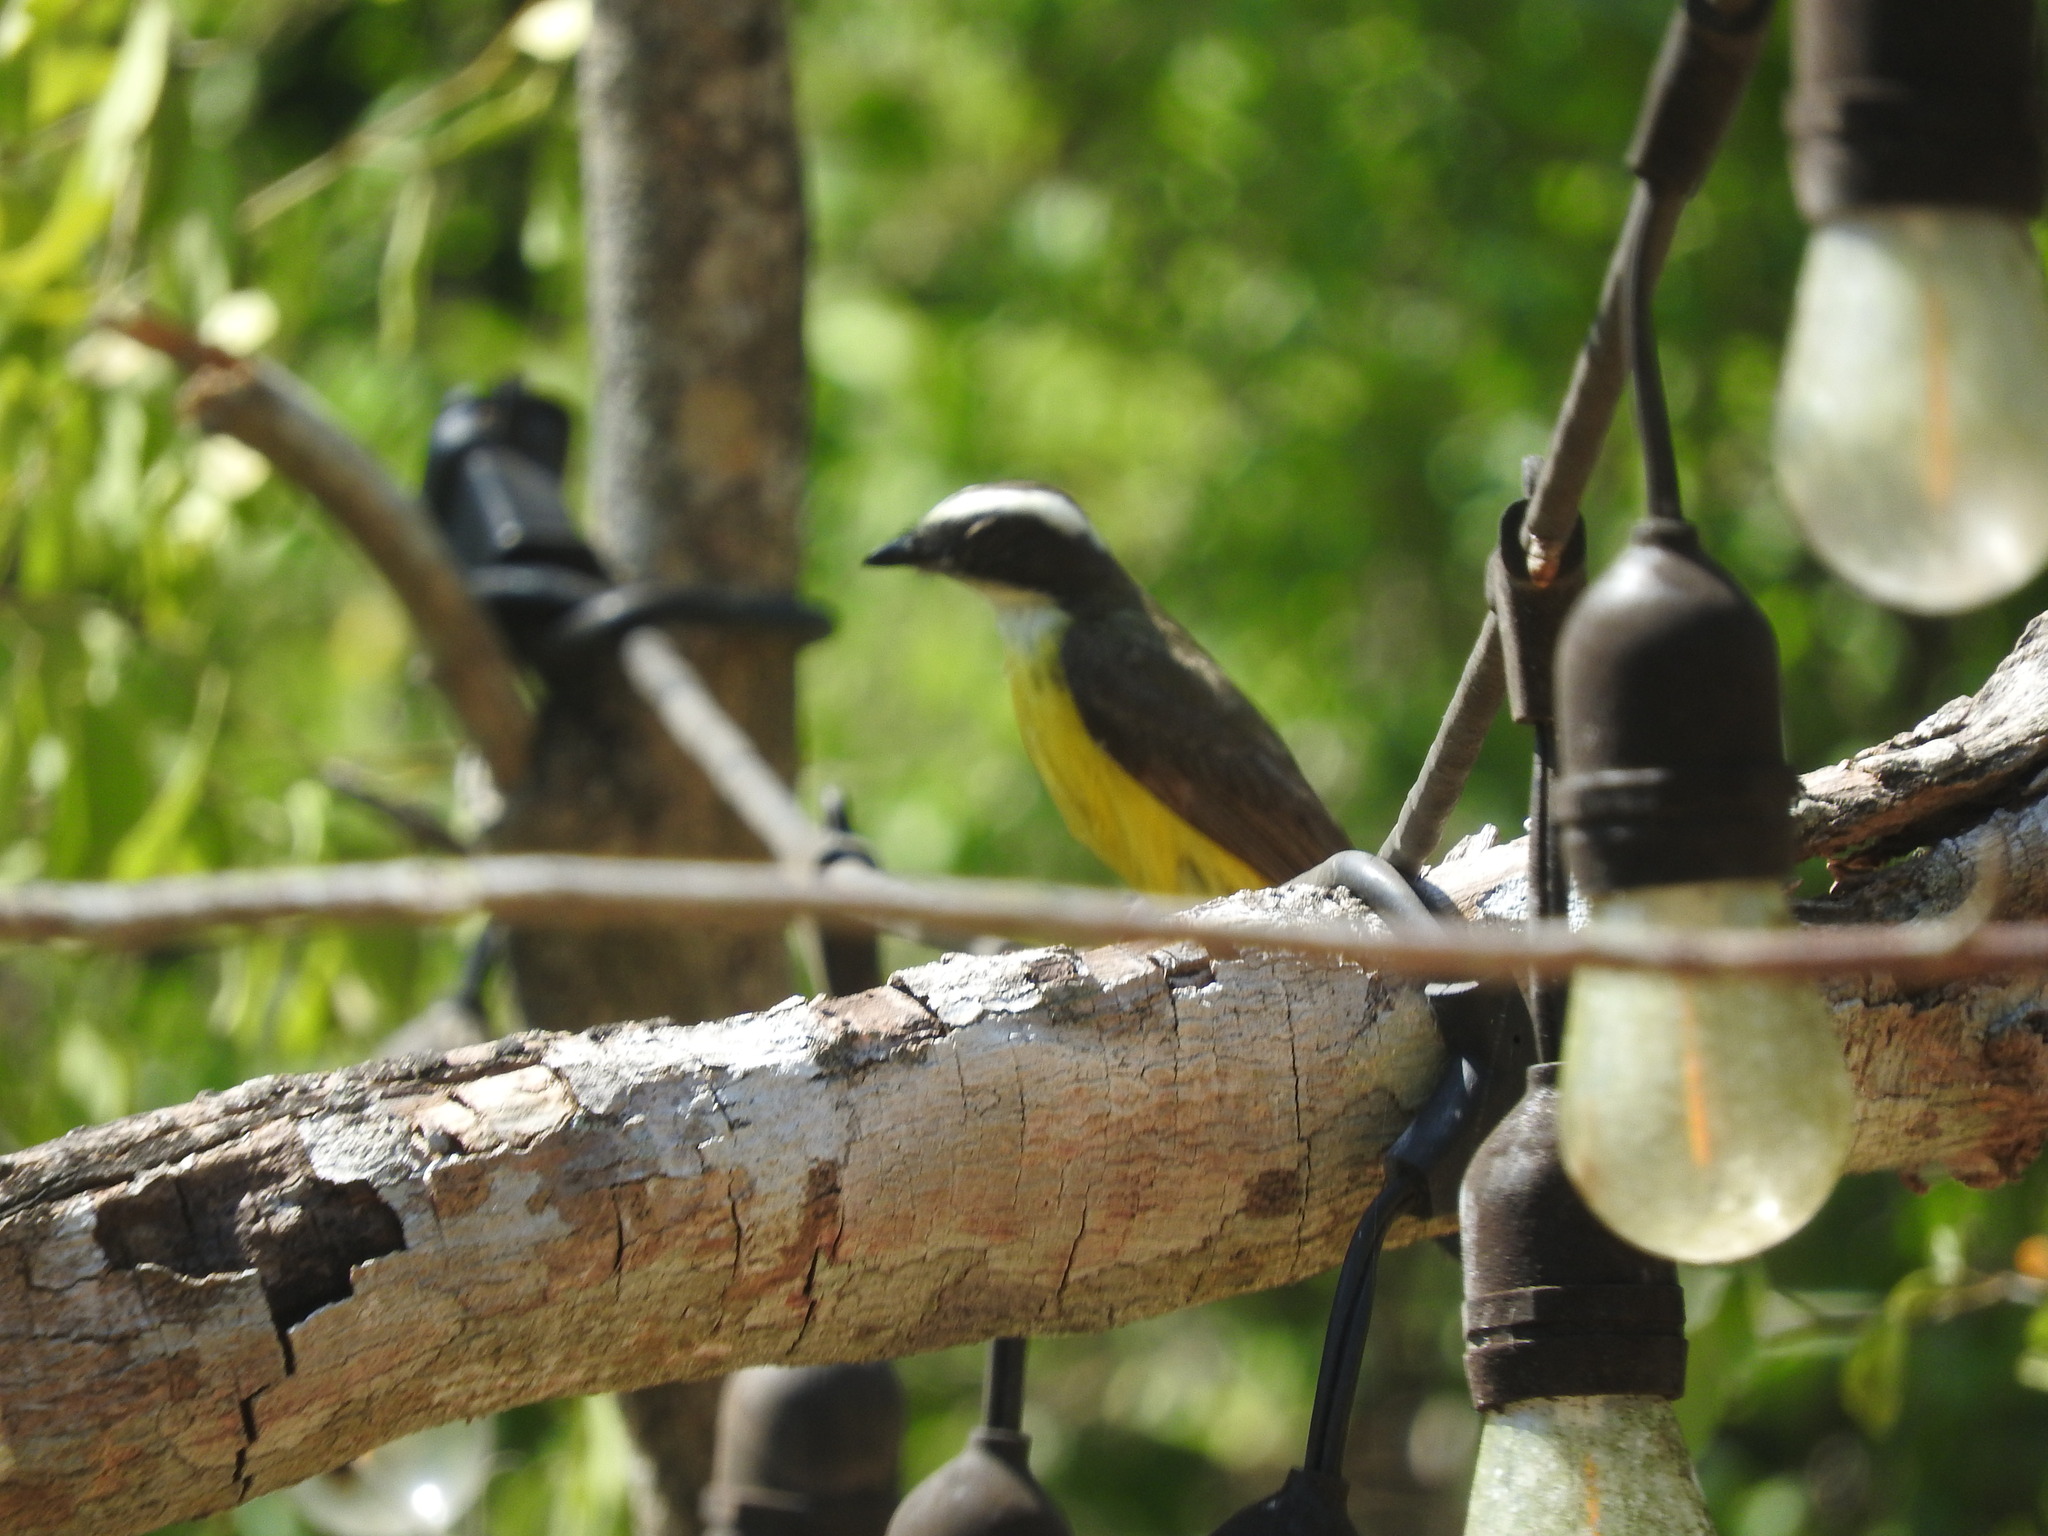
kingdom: Animalia
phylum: Chordata
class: Aves
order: Passeriformes
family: Tyrannidae
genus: Myiozetetes
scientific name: Myiozetetes similis
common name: Social flycatcher
